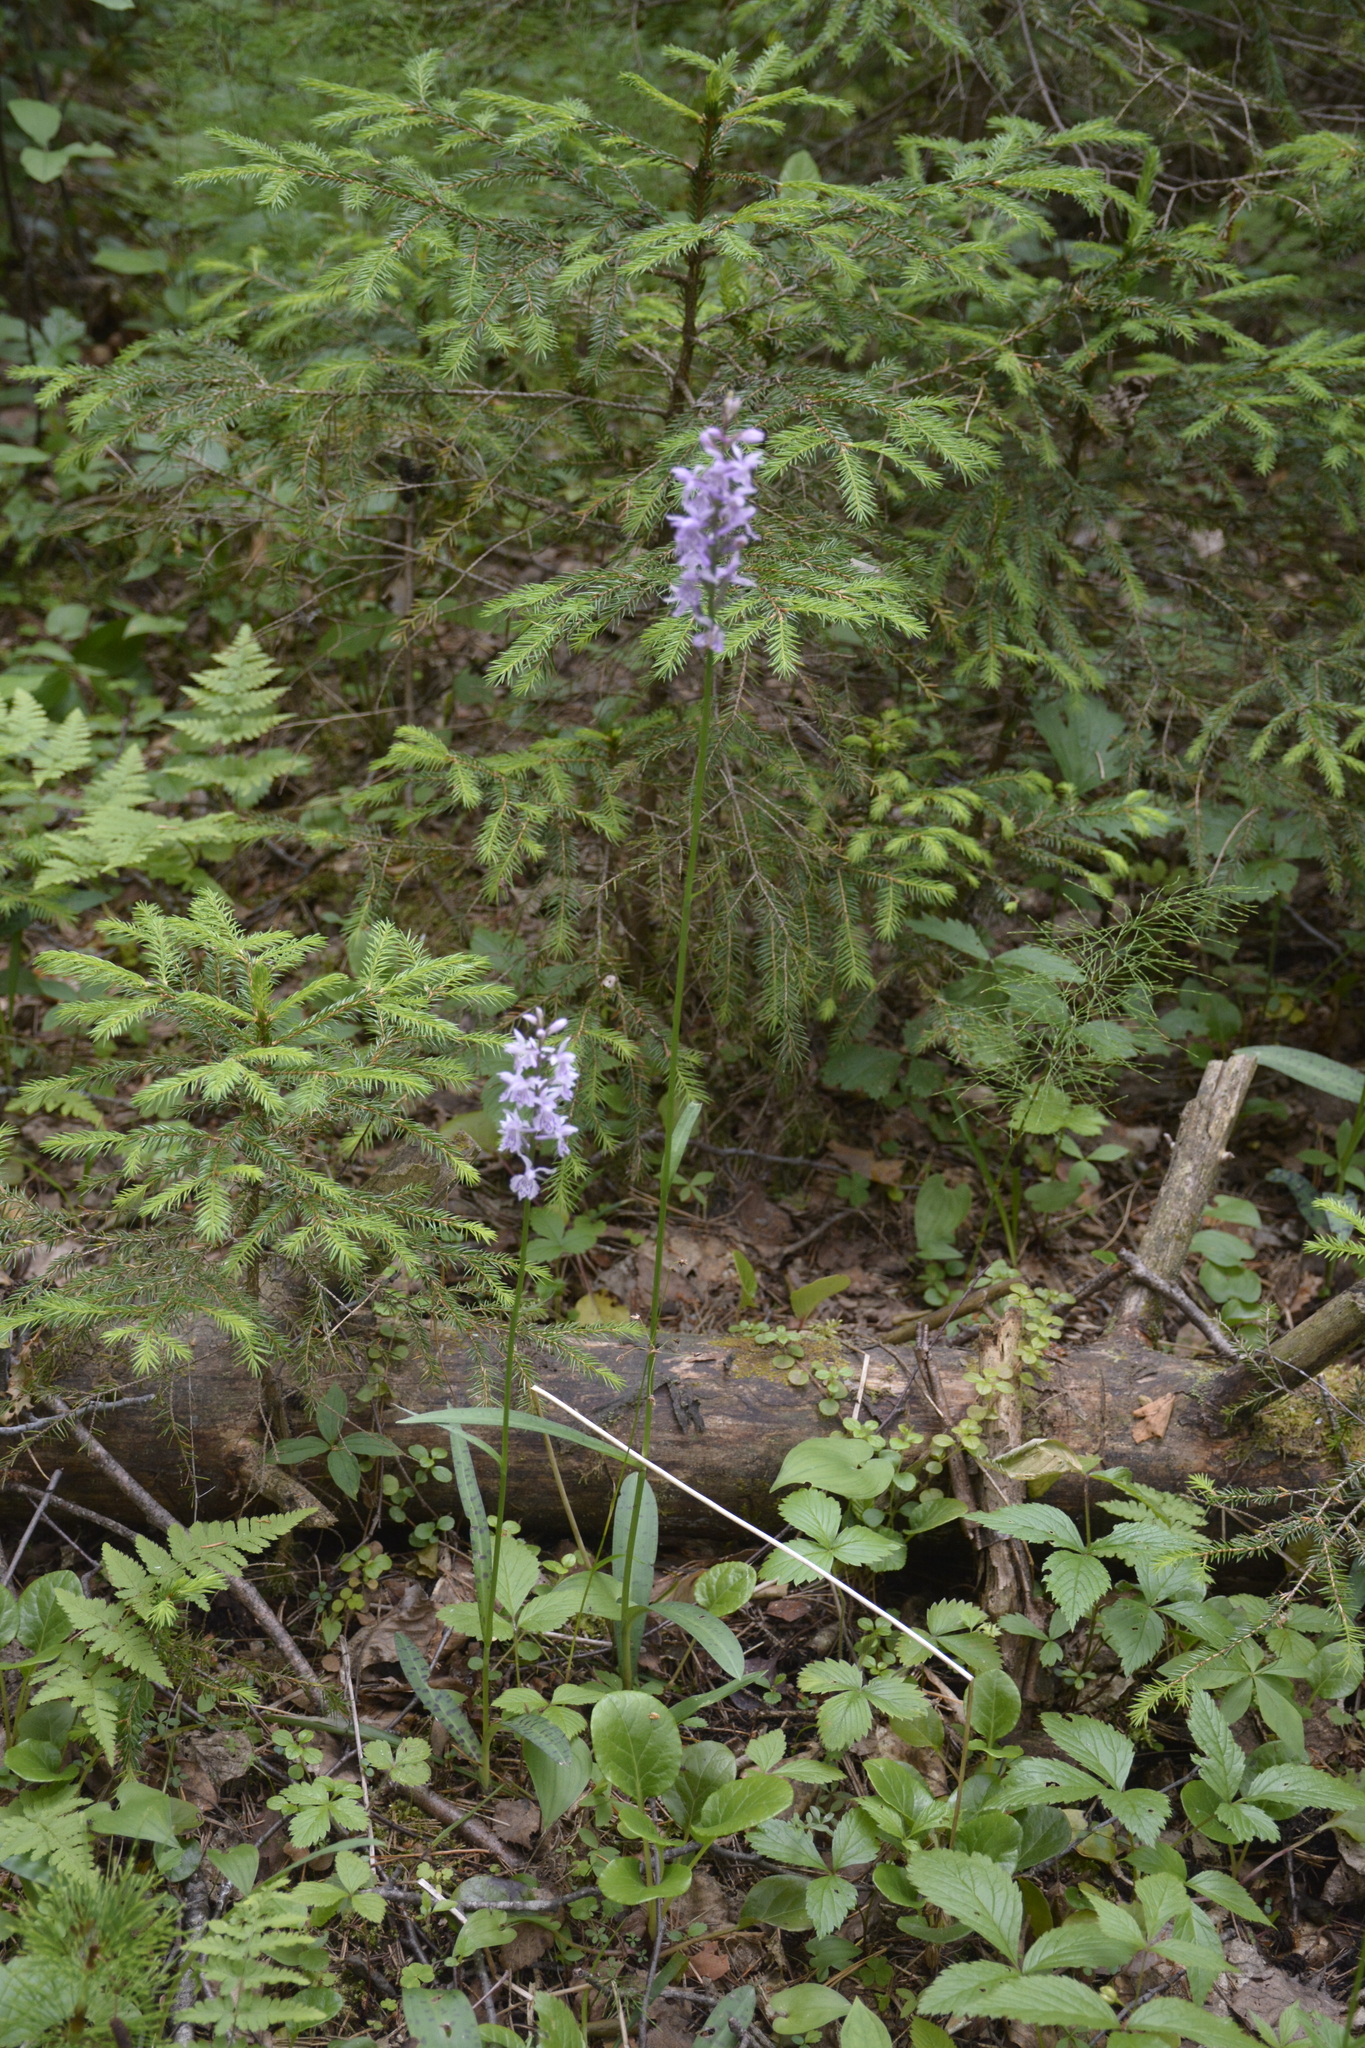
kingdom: Plantae
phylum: Tracheophyta
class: Liliopsida
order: Asparagales
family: Orchidaceae
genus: Dactylorhiza
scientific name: Dactylorhiza maculata
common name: Heath spotted-orchid
